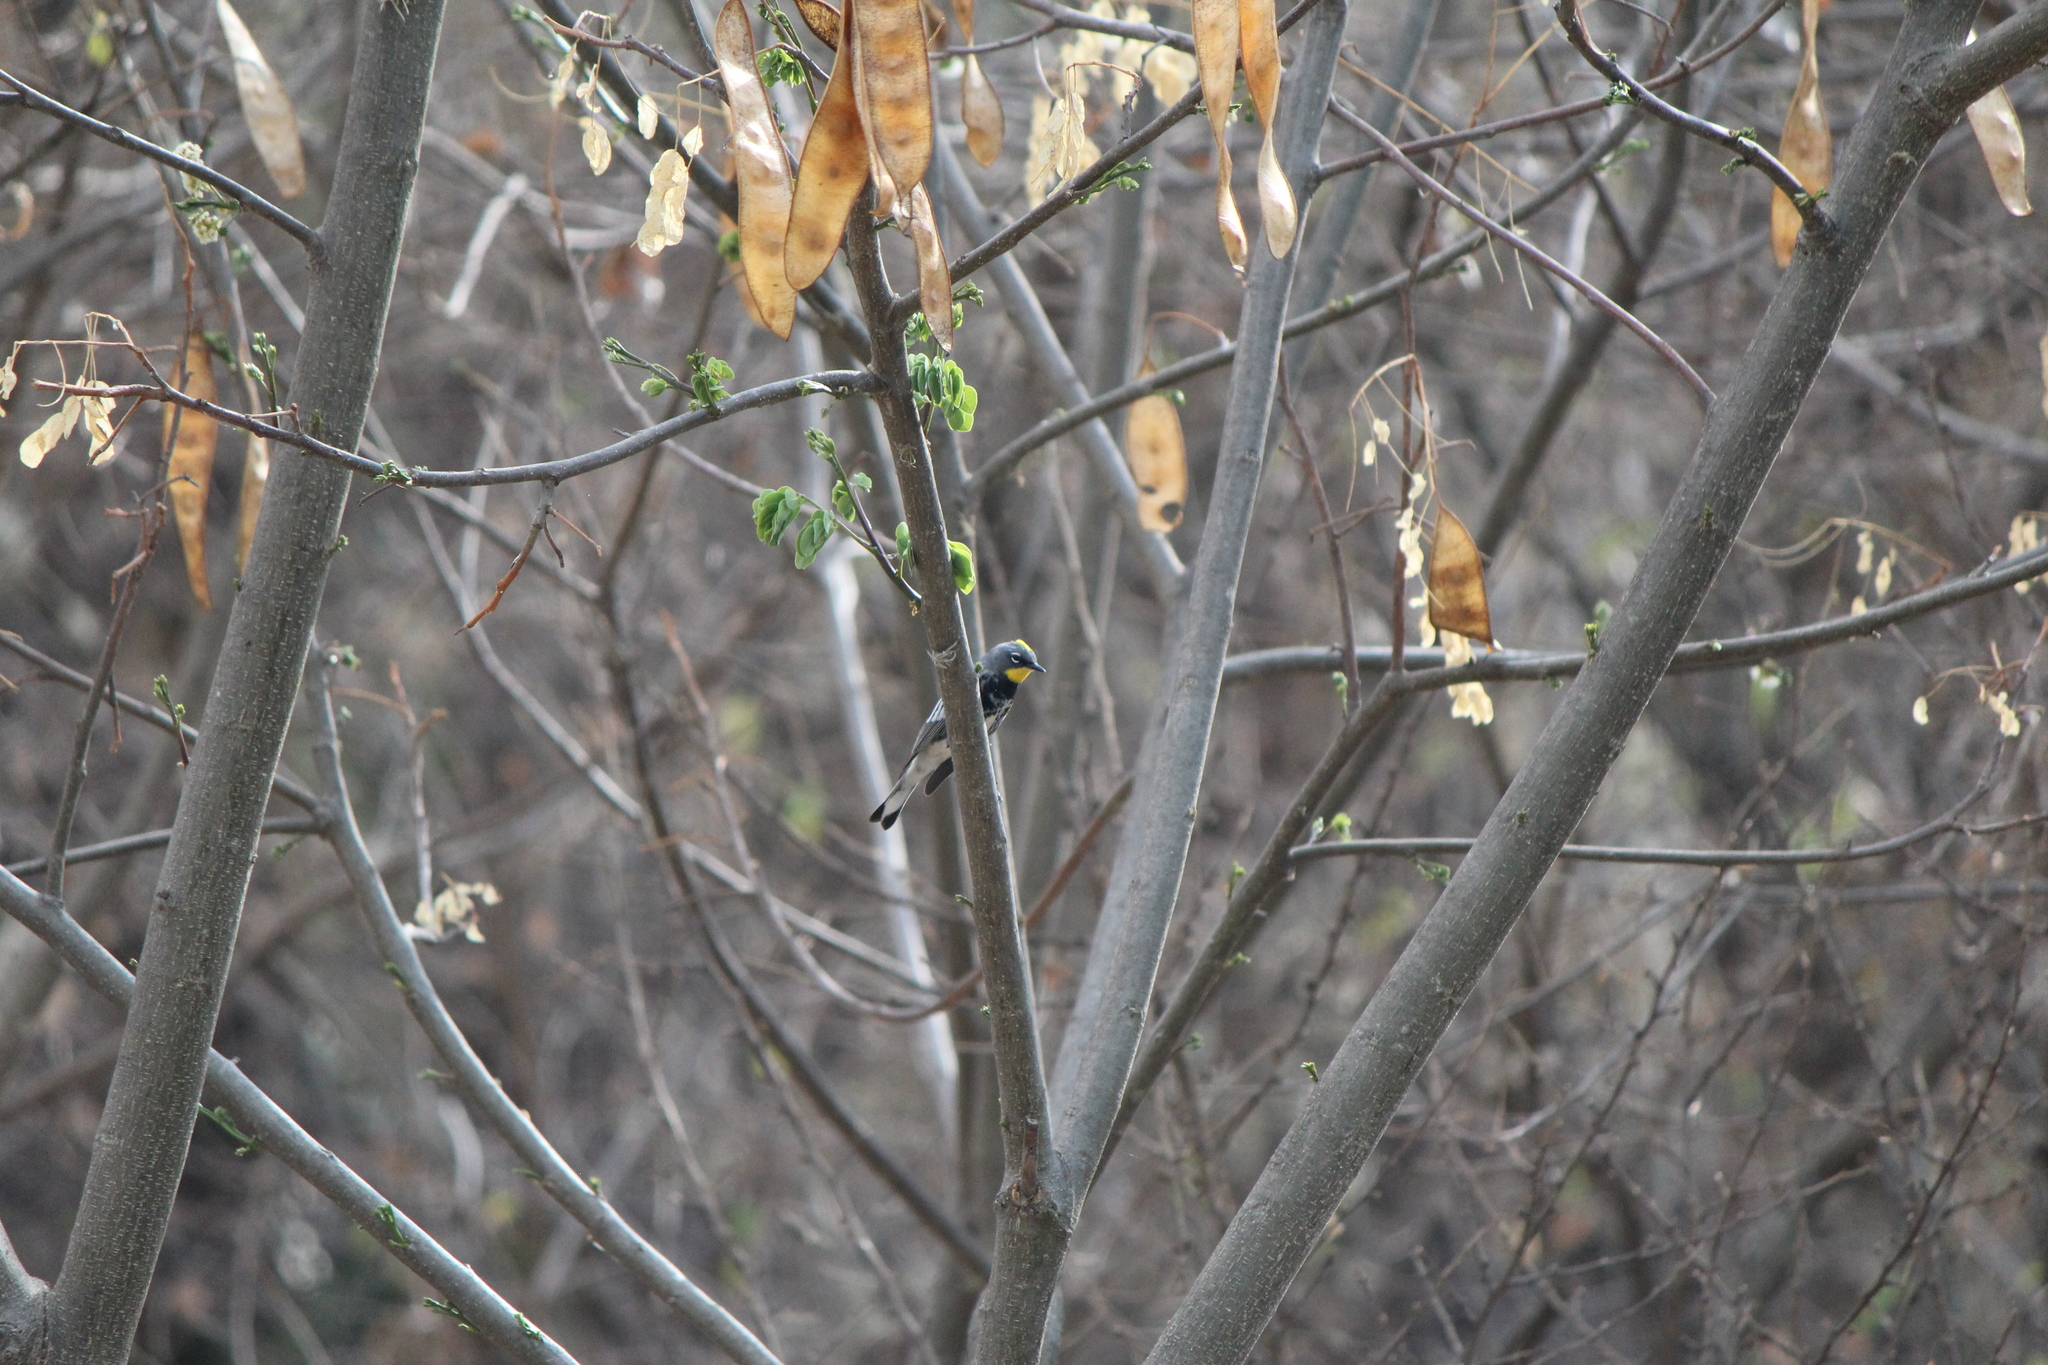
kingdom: Animalia
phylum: Chordata
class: Aves
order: Passeriformes
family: Parulidae
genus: Setophaga
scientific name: Setophaga auduboni
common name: Audubon's warbler
